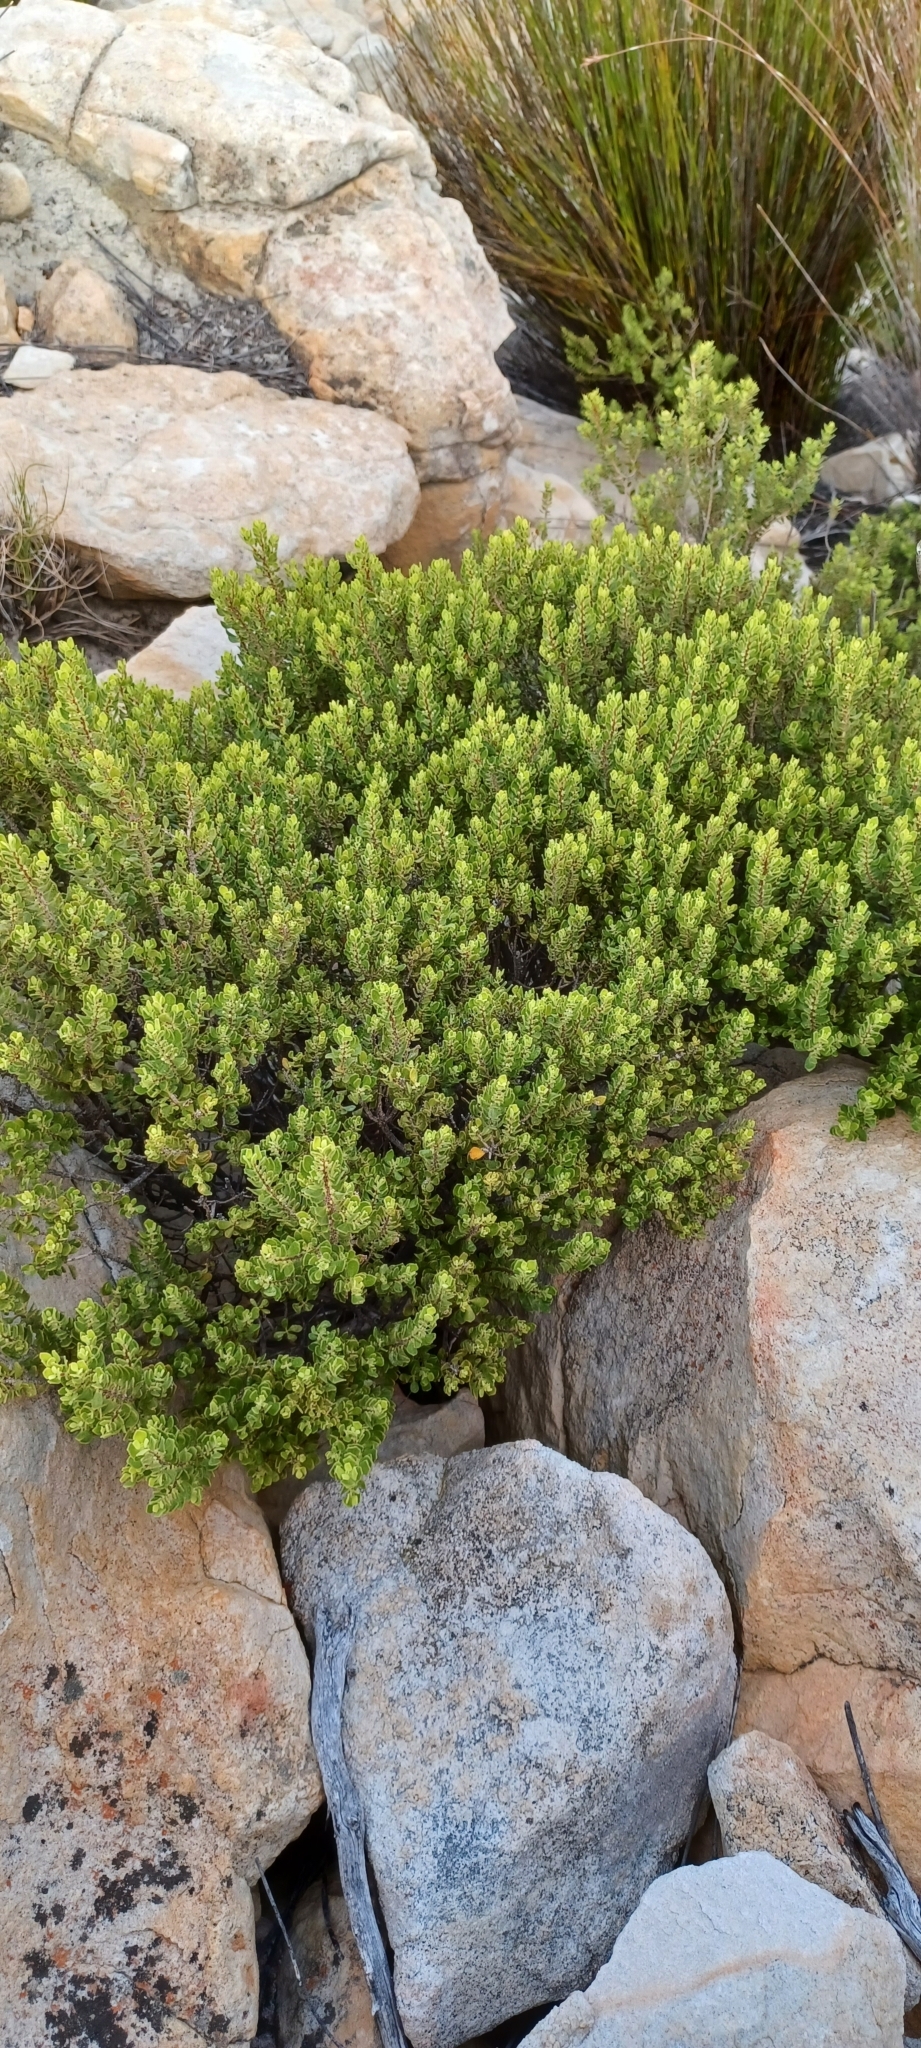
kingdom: Plantae
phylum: Tracheophyta
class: Magnoliopsida
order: Sapindales
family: Rutaceae
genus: Agathosma
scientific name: Agathosma ovata
